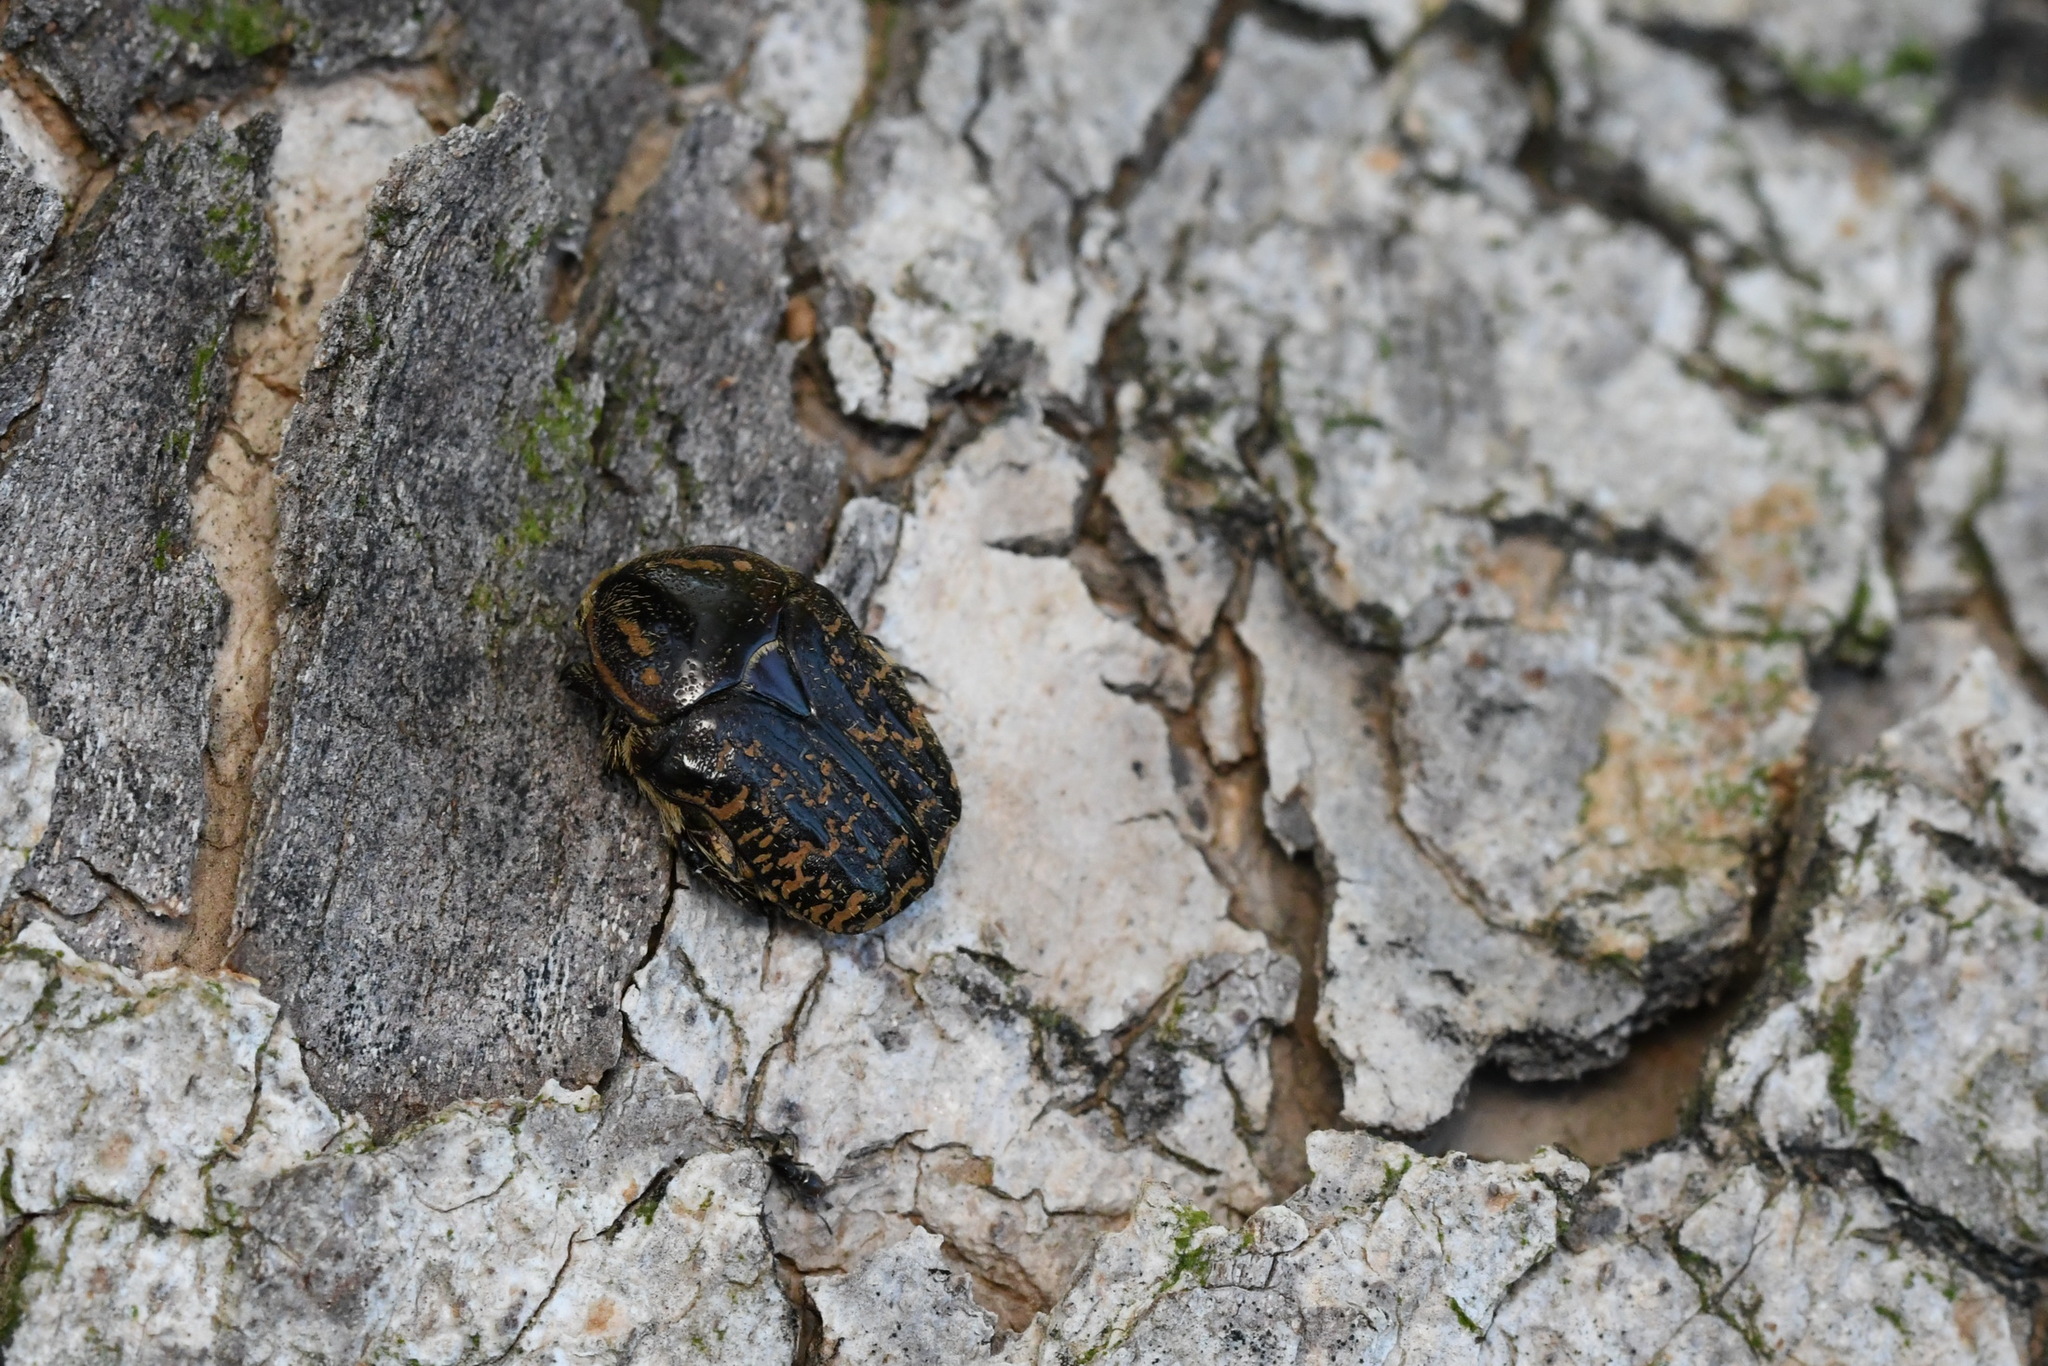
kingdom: Animalia
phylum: Arthropoda
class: Insecta
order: Coleoptera
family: Scarabaeidae
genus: Euphoria
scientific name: Euphoria lurida
